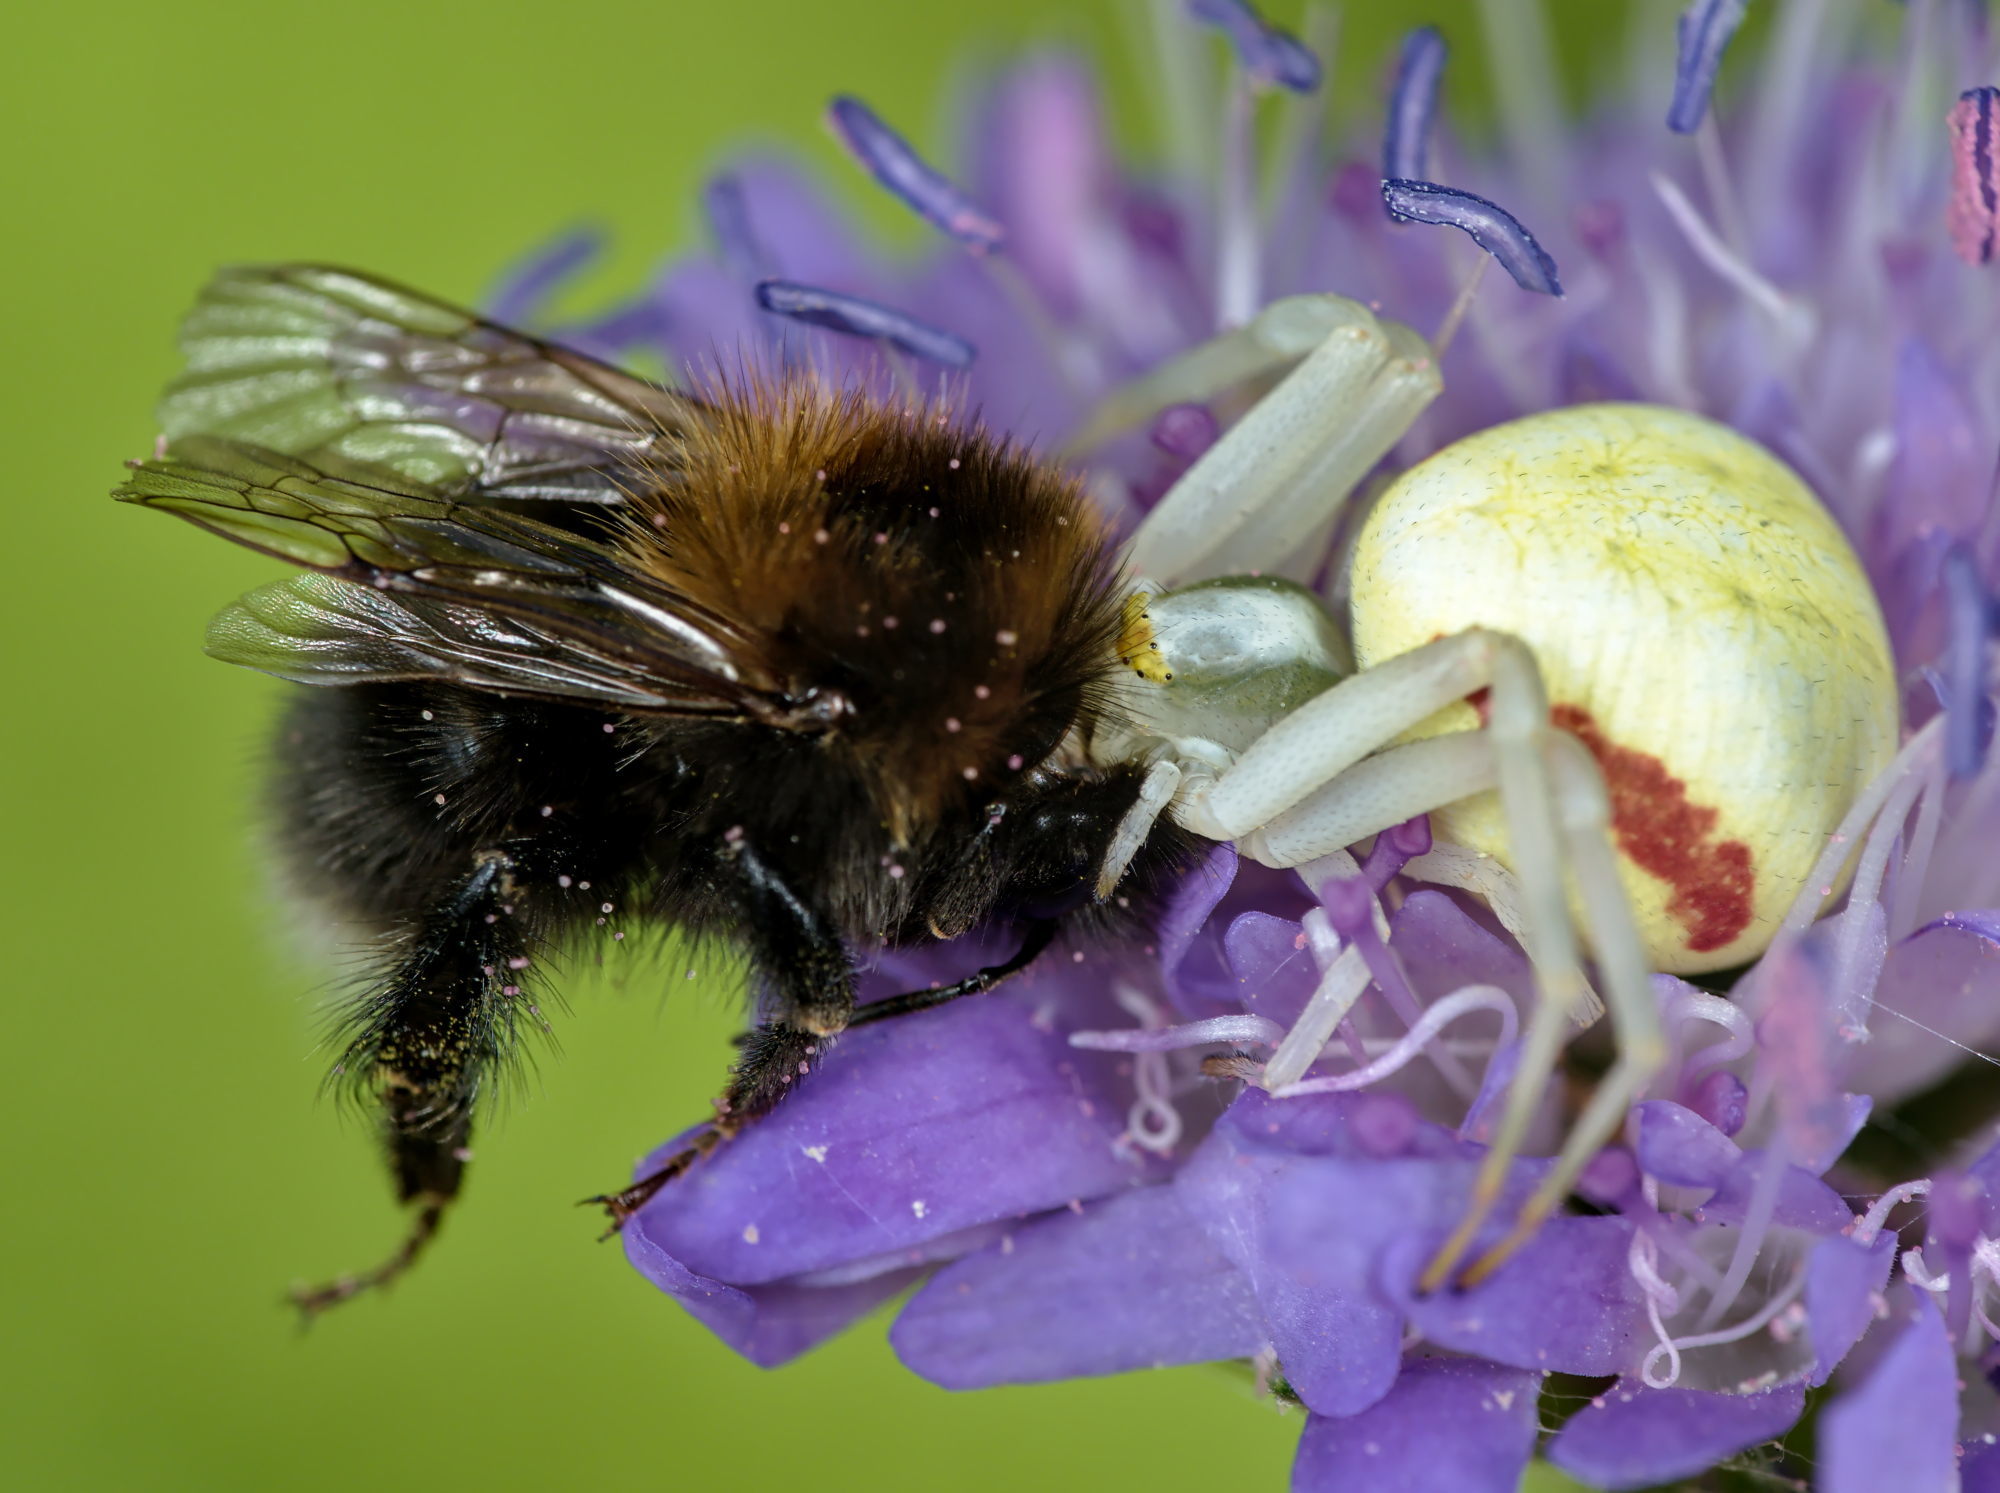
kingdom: Animalia
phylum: Arthropoda
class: Insecta
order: Hymenoptera
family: Apidae
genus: Bombus
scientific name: Bombus hypnorum
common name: New garden bumblebee
